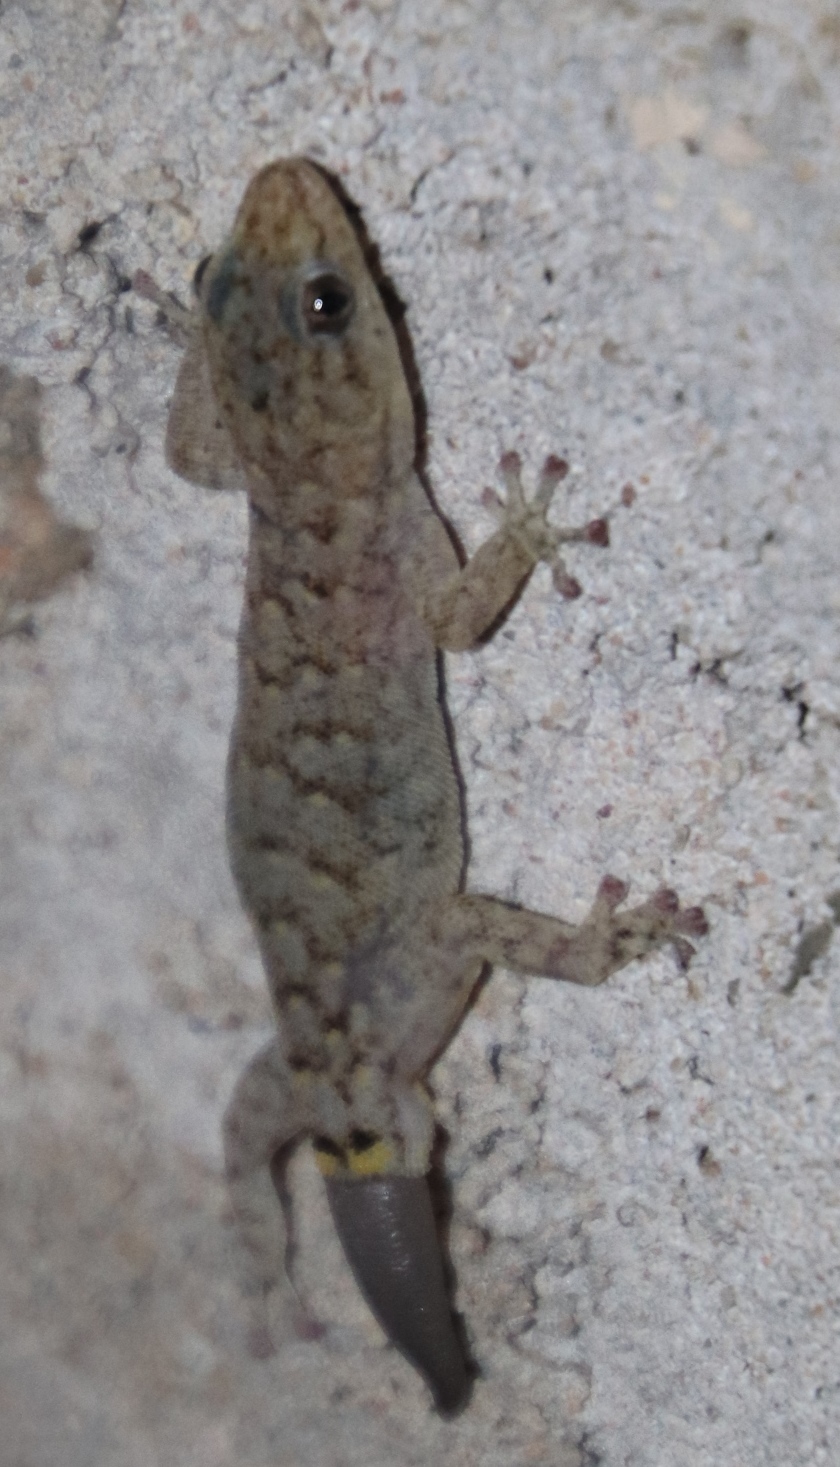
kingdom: Animalia
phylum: Chordata
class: Squamata
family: Gekkonidae
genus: Goggia
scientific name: Goggia hexapora
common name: Cedarberg dwarf leaf-toed gecko
